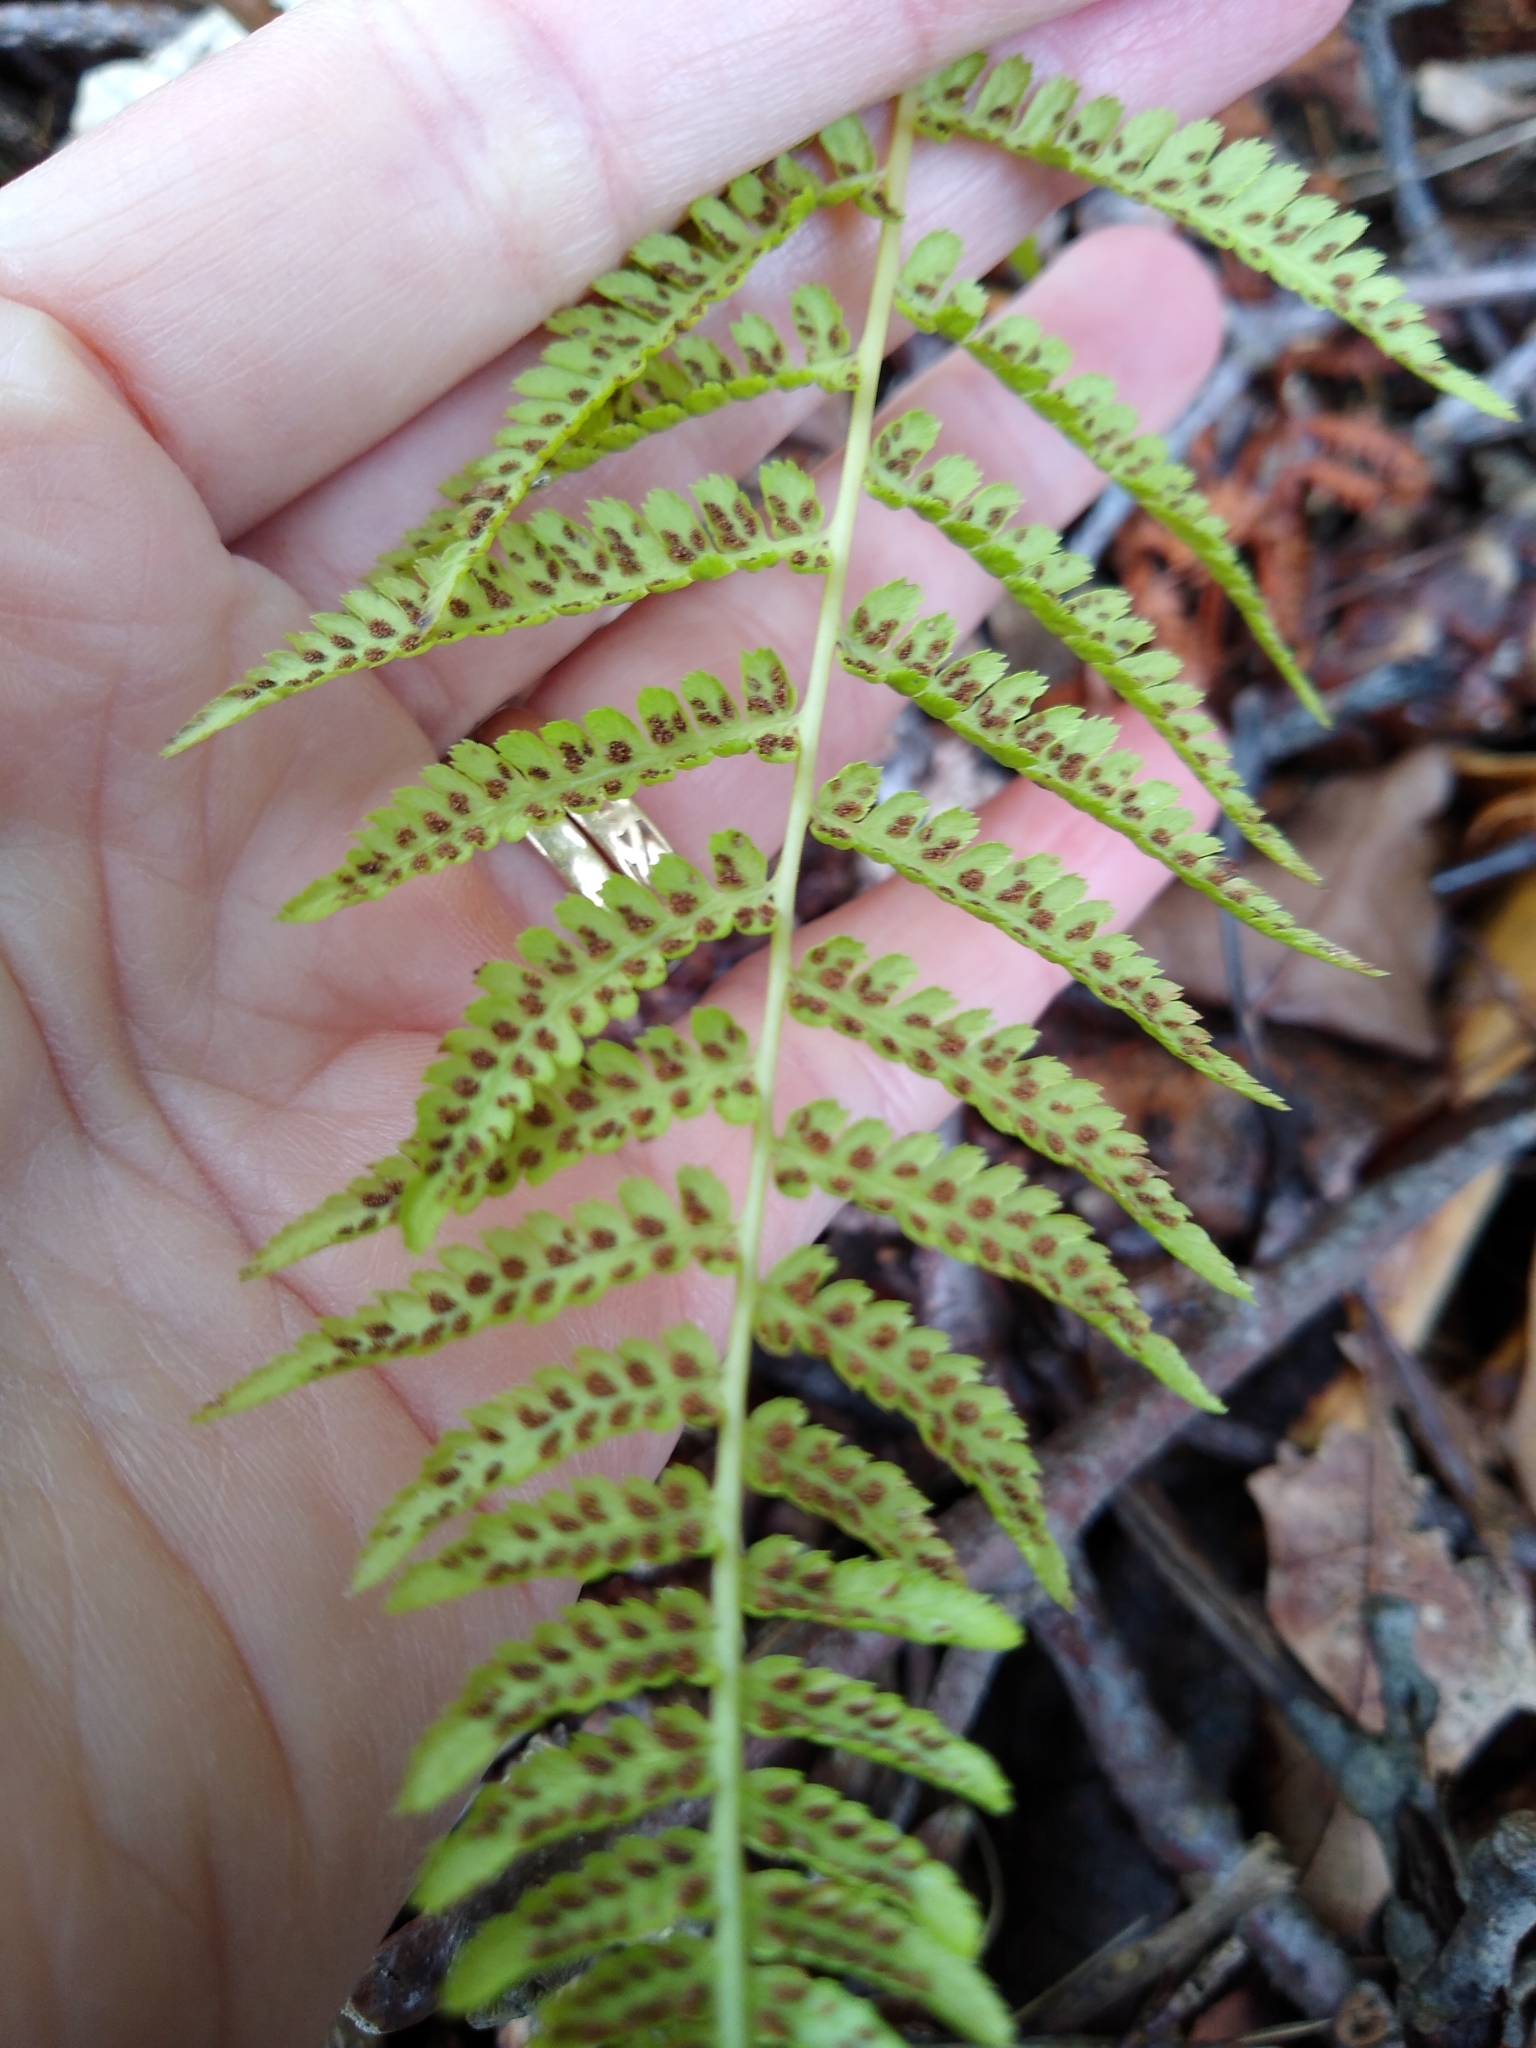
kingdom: Plantae
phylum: Tracheophyta
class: Polypodiopsida
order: Polypodiales
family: Thelypteridaceae
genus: Amauropelta
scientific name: Amauropelta noveboracensis
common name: New york fern
